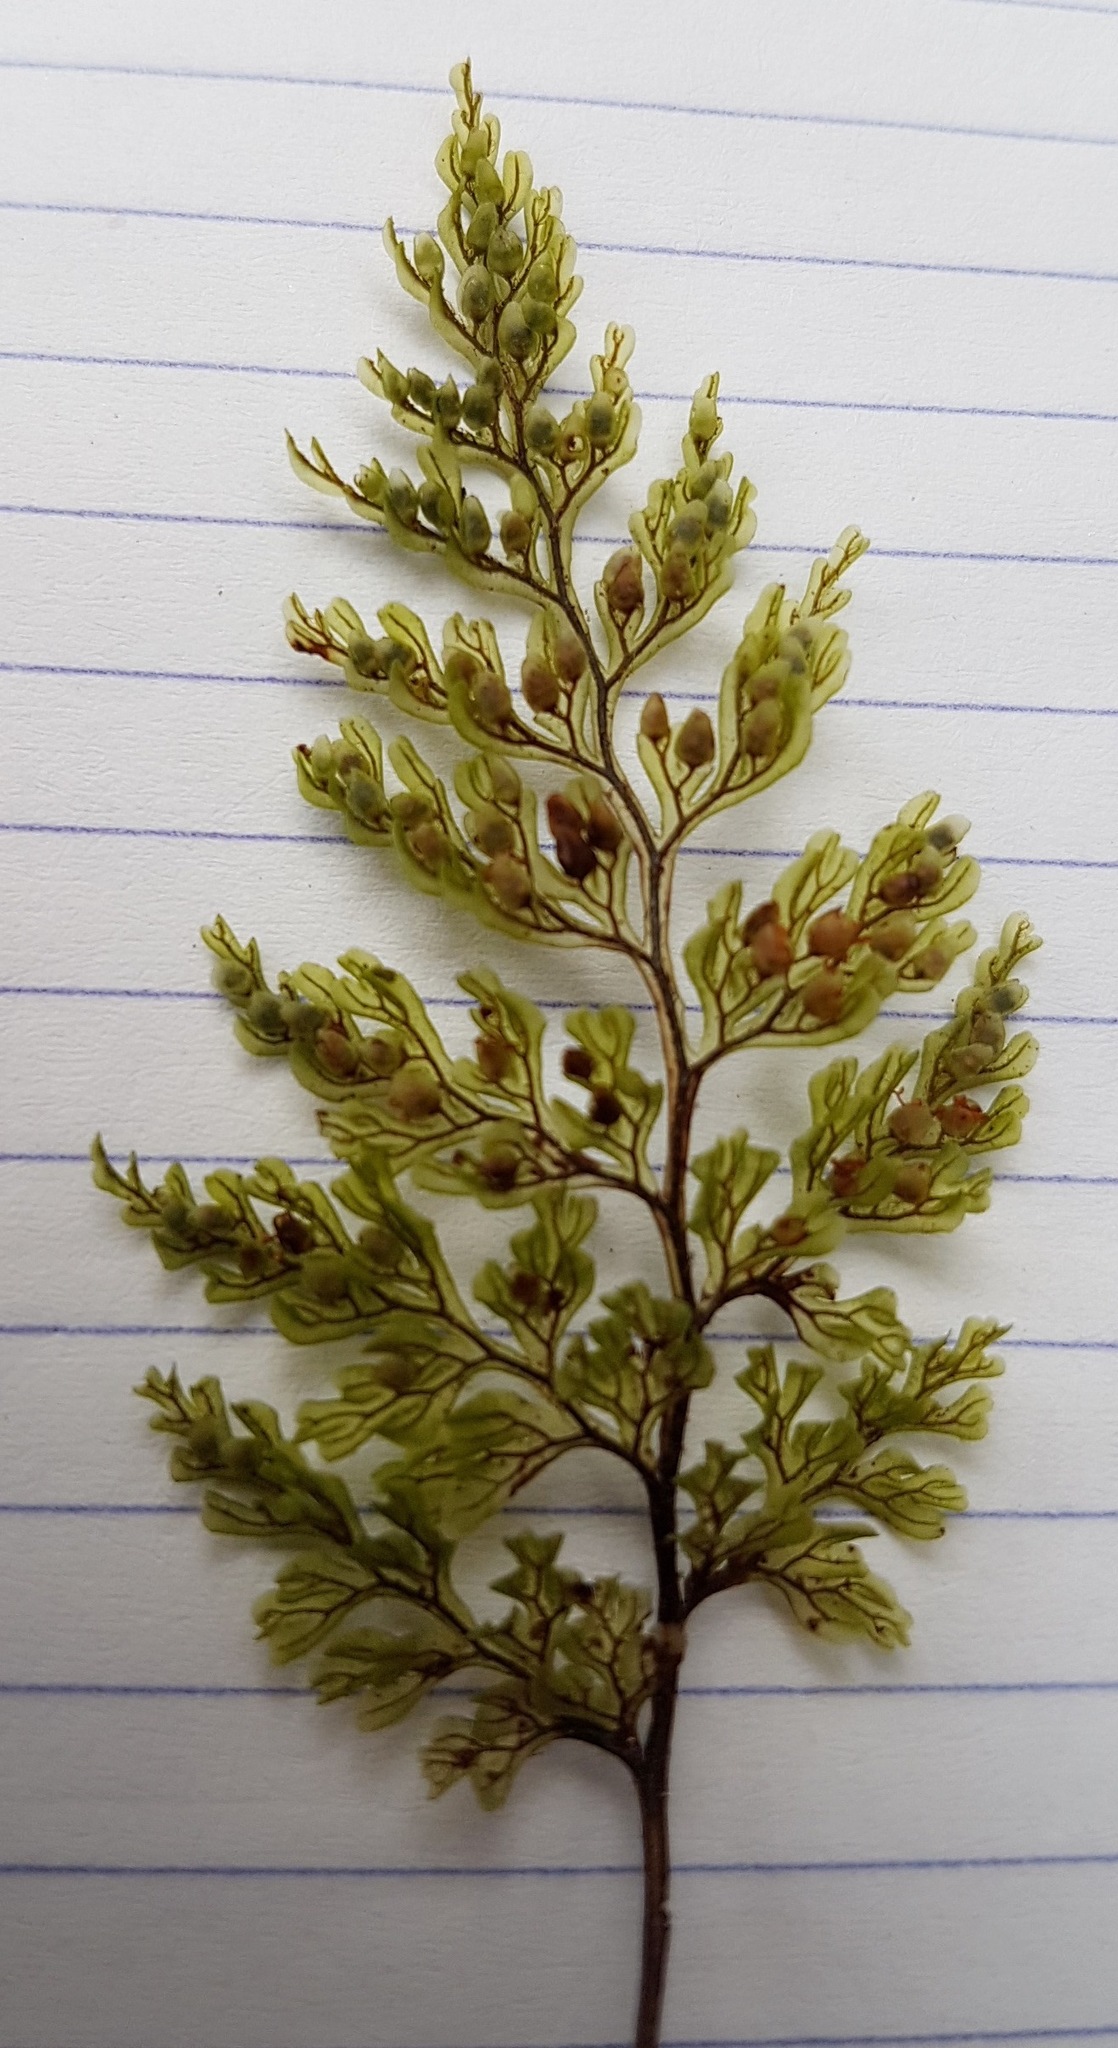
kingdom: Plantae
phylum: Tracheophyta
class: Polypodiopsida
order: Hymenophyllales
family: Hymenophyllaceae
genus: Hymenophyllum
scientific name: Hymenophyllum villosum
